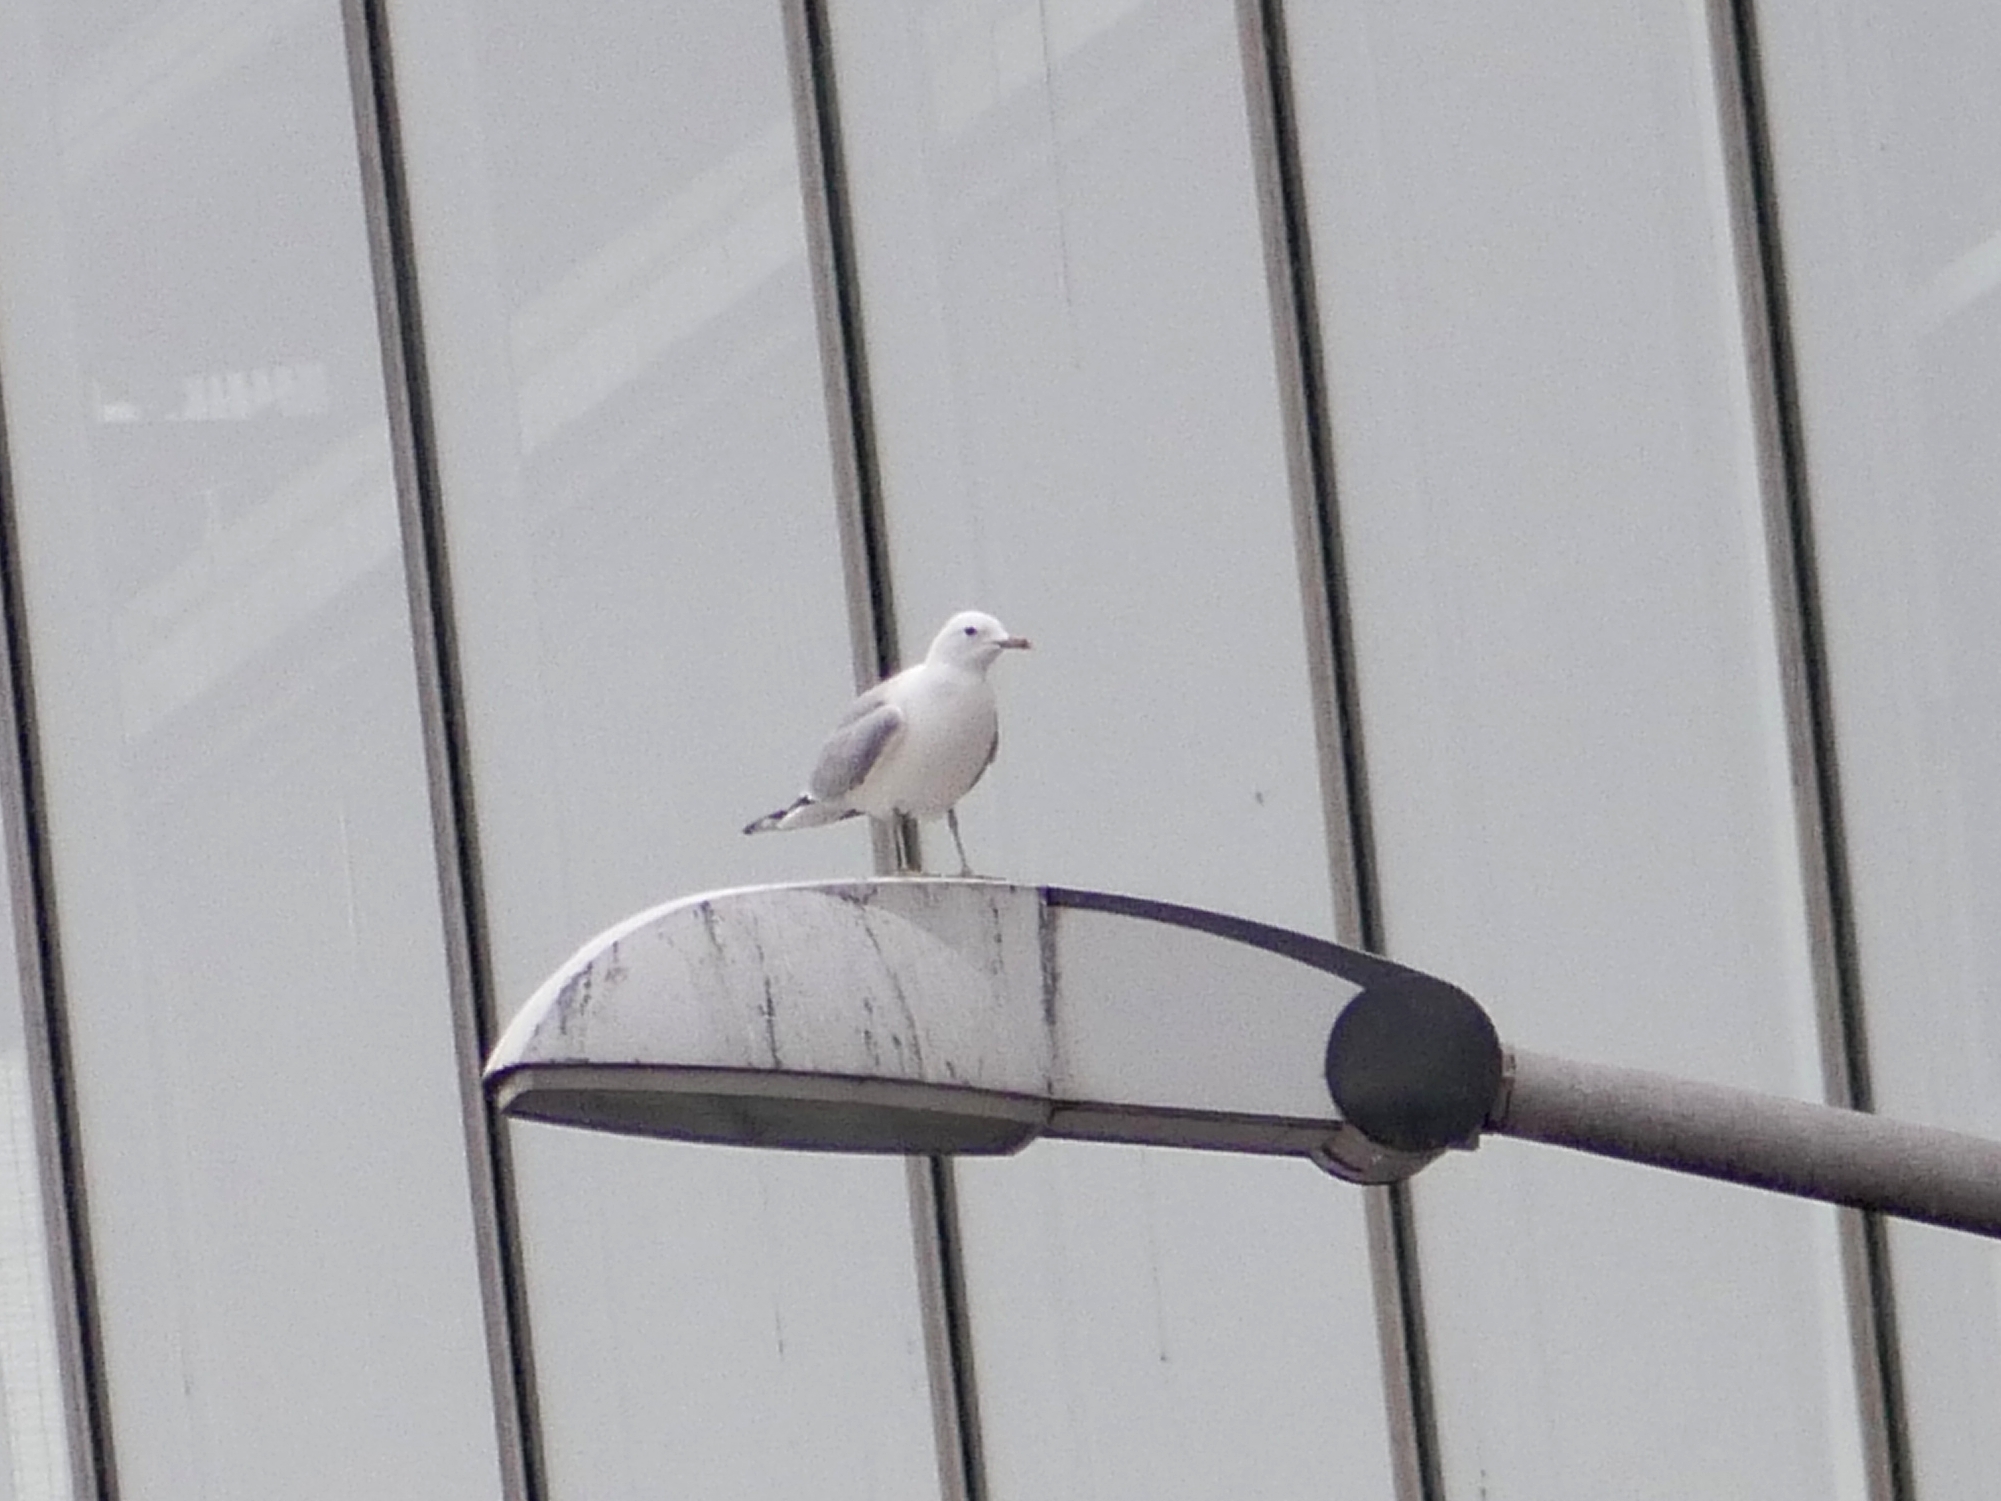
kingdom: Animalia
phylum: Chordata
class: Aves
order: Charadriiformes
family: Laridae
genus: Larus
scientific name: Larus canus
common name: Mew gull
